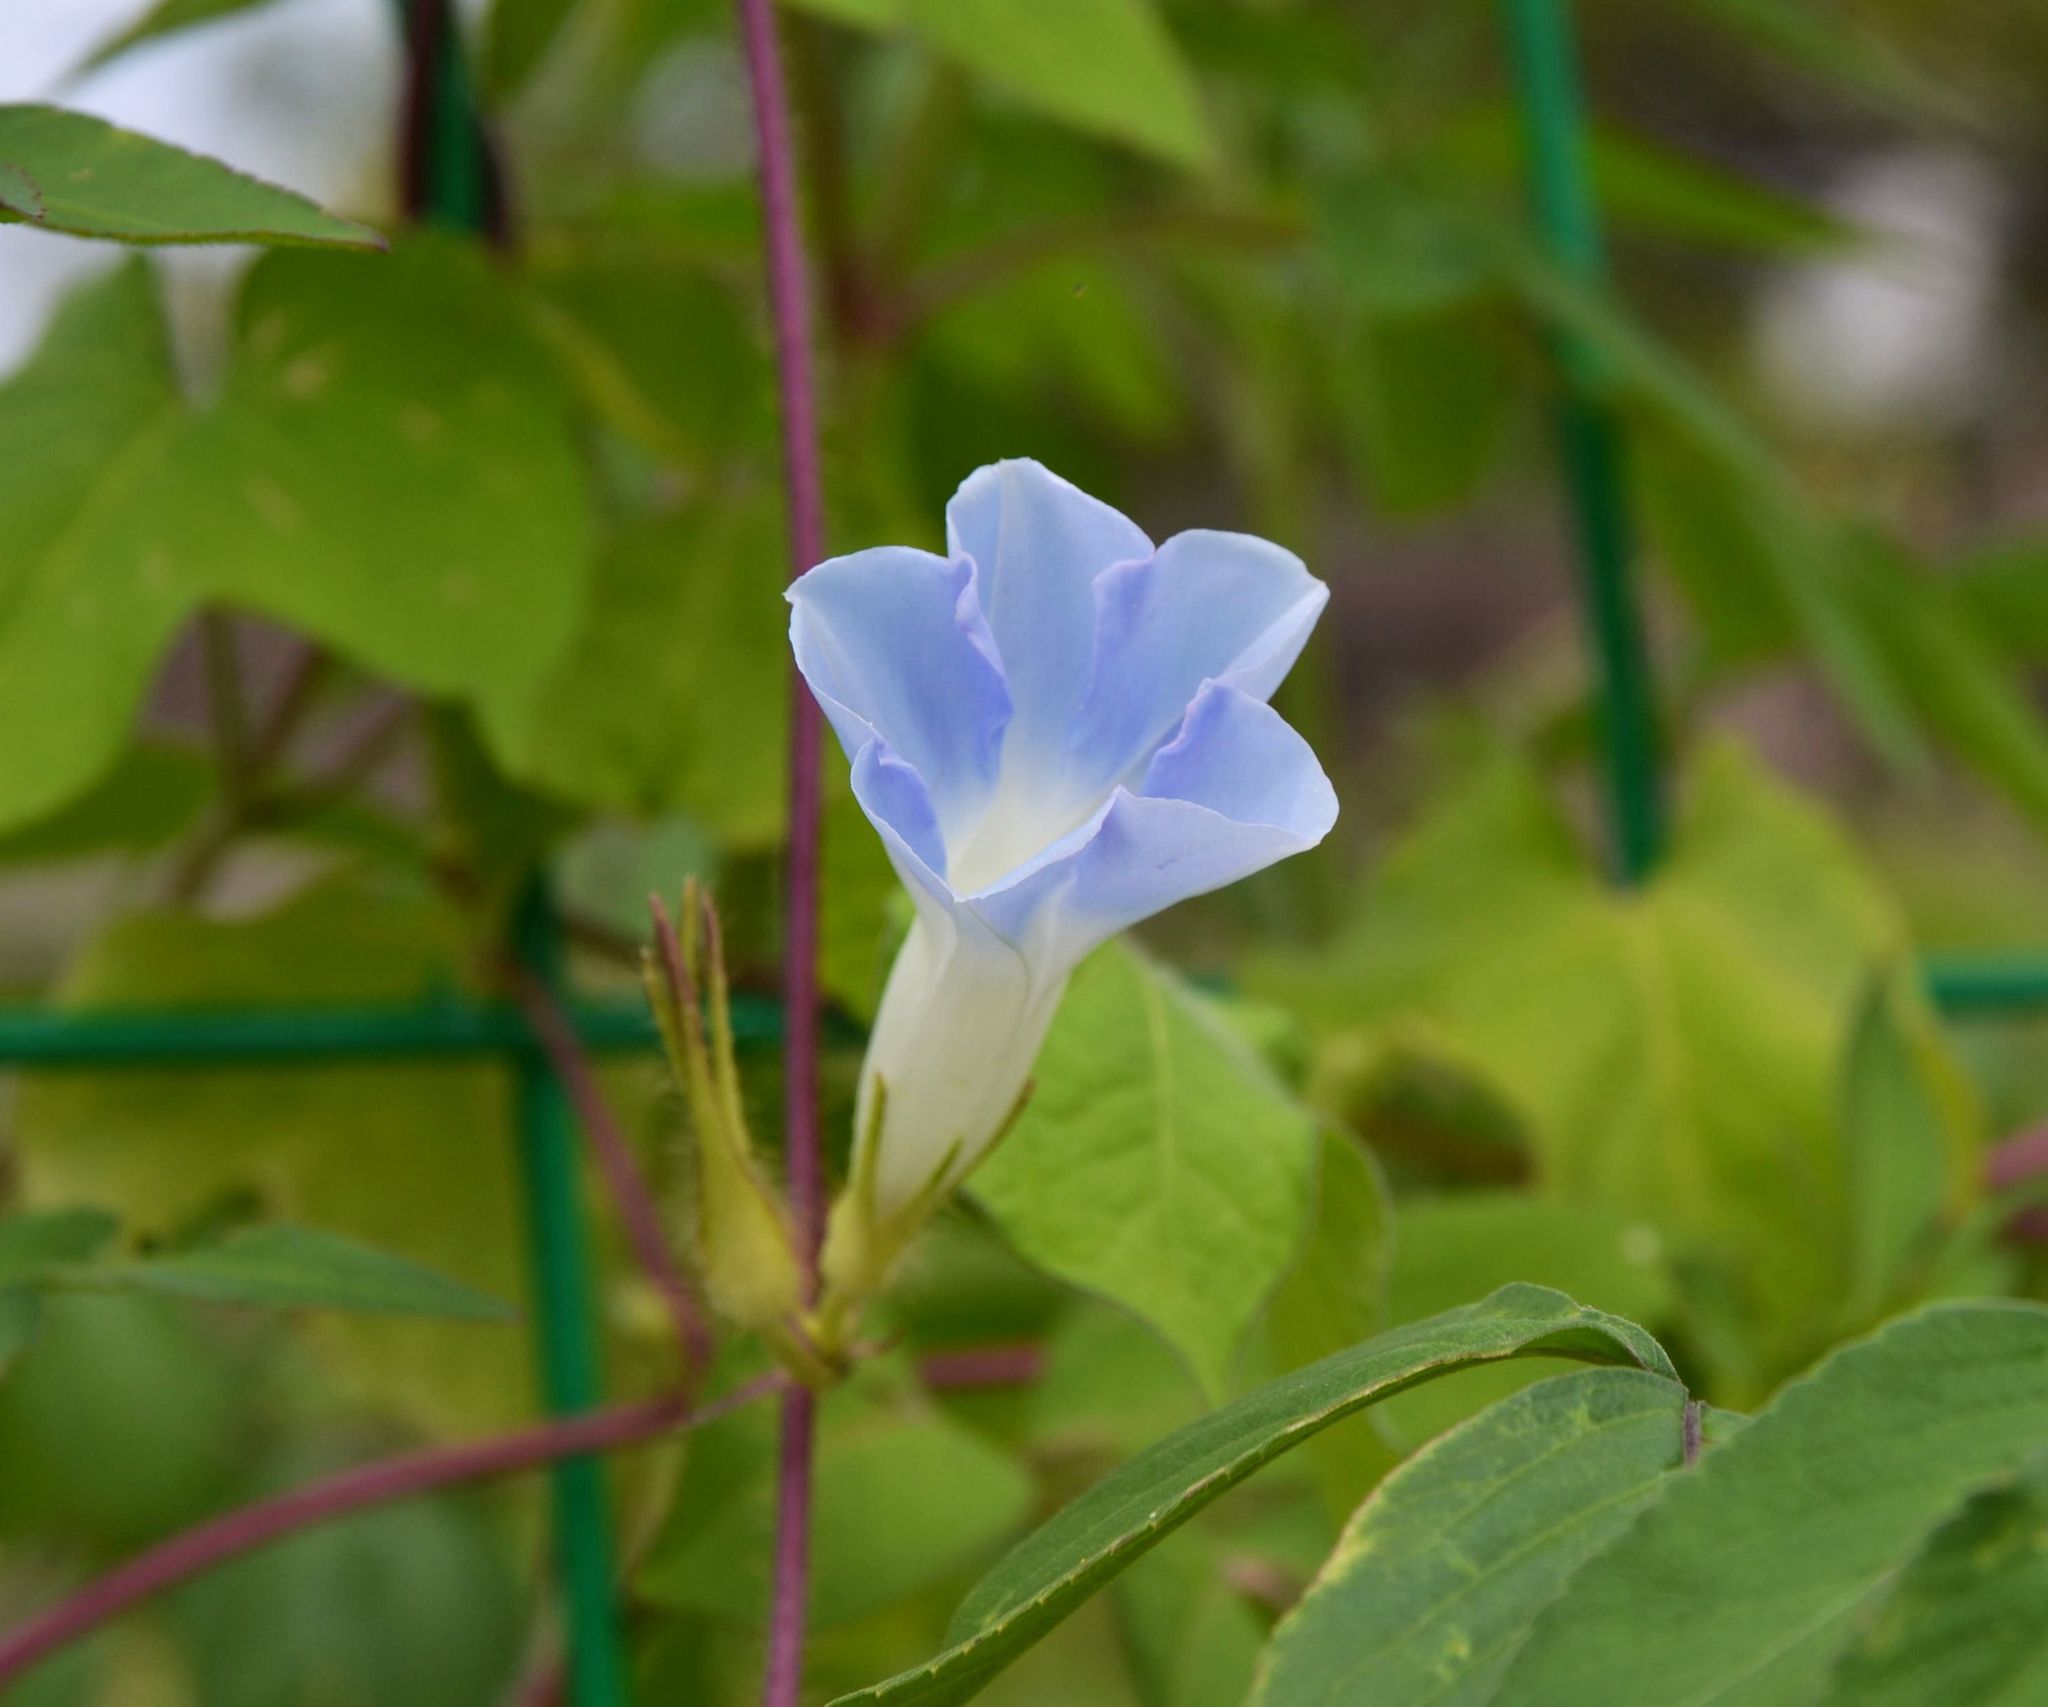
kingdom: Plantae
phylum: Tracheophyta
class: Magnoliopsida
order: Solanales
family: Convolvulaceae
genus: Ipomoea
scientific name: Ipomoea nil
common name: Japanese morning-glory
